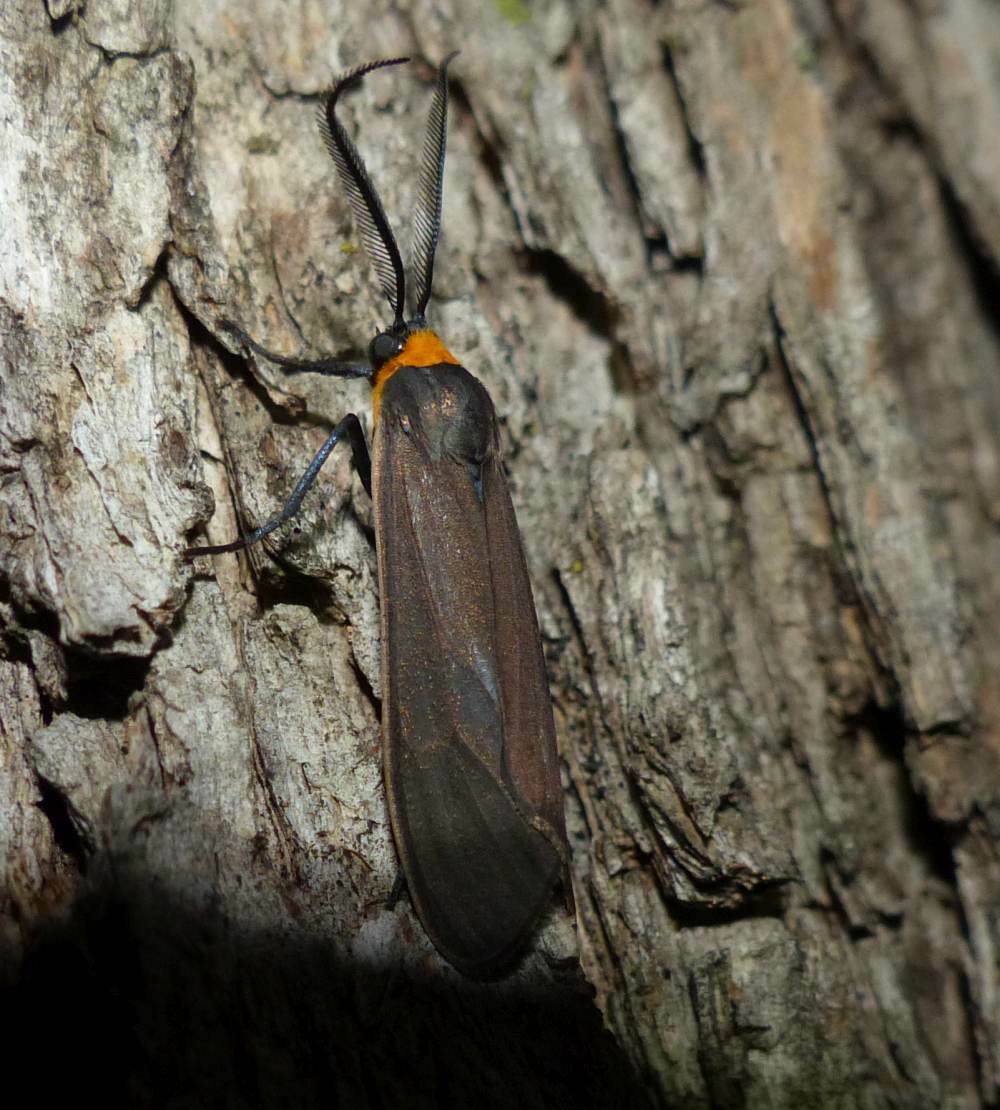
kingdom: Animalia
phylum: Arthropoda
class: Insecta
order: Lepidoptera
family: Erebidae
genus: Cisseps
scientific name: Cisseps fulvicollis
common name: Yellow-collared scape moth
